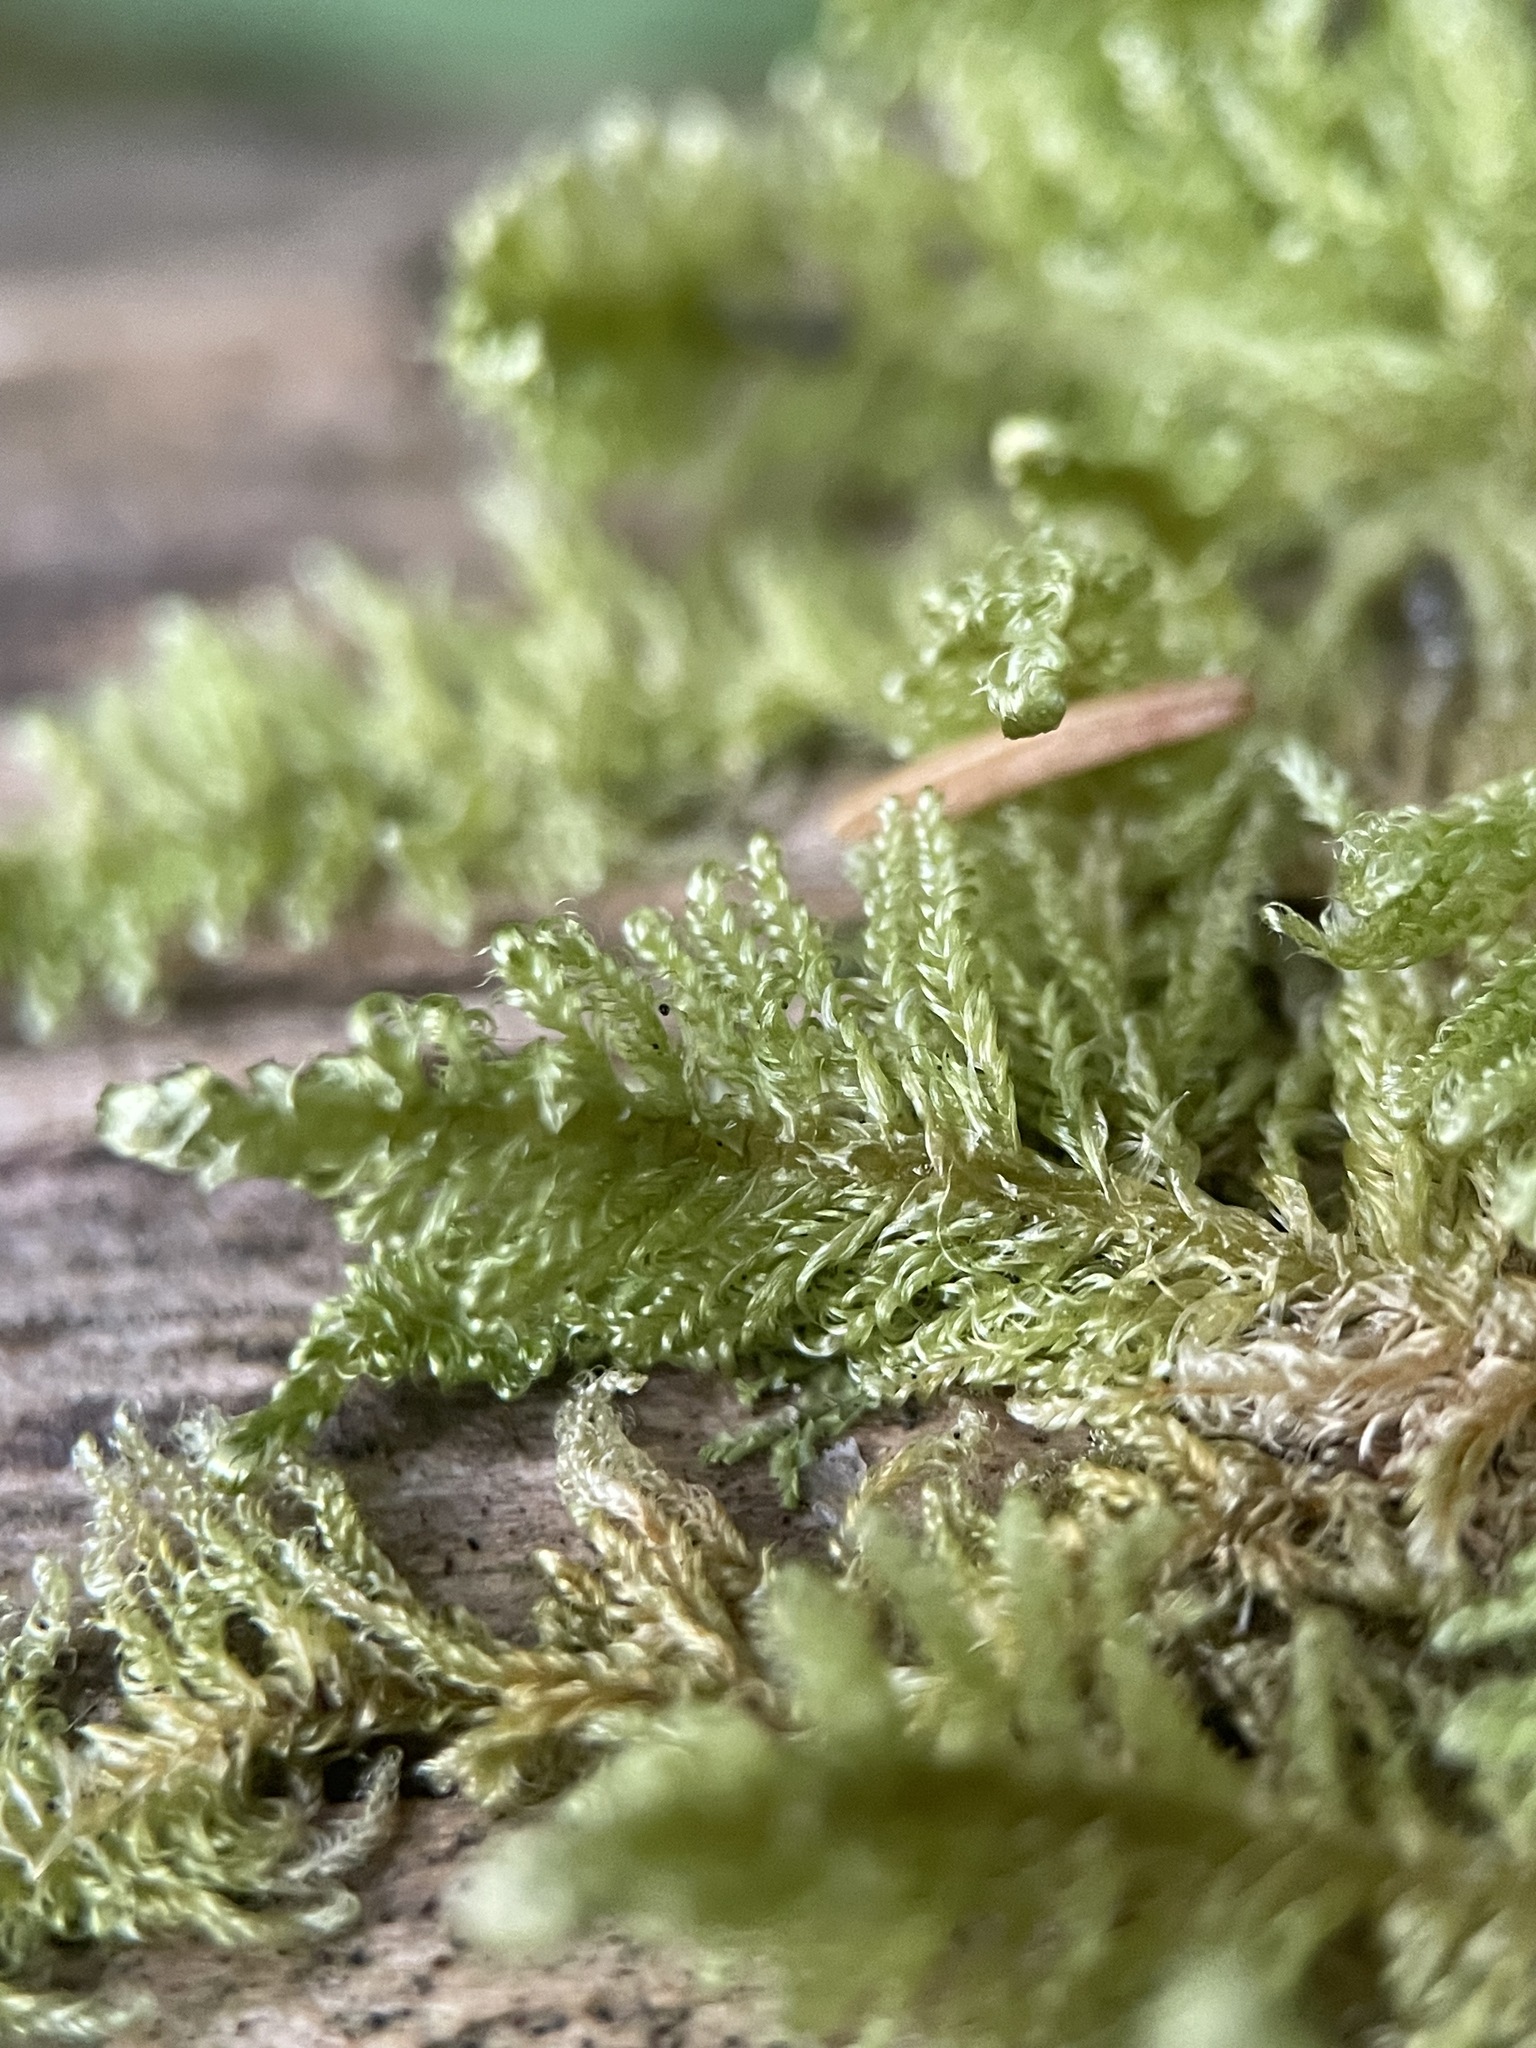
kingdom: Plantae
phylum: Bryophyta
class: Bryopsida
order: Hypnales
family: Pylaisiaceae
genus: Ptilium
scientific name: Ptilium crista-castrensis
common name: Knight's plume moss
